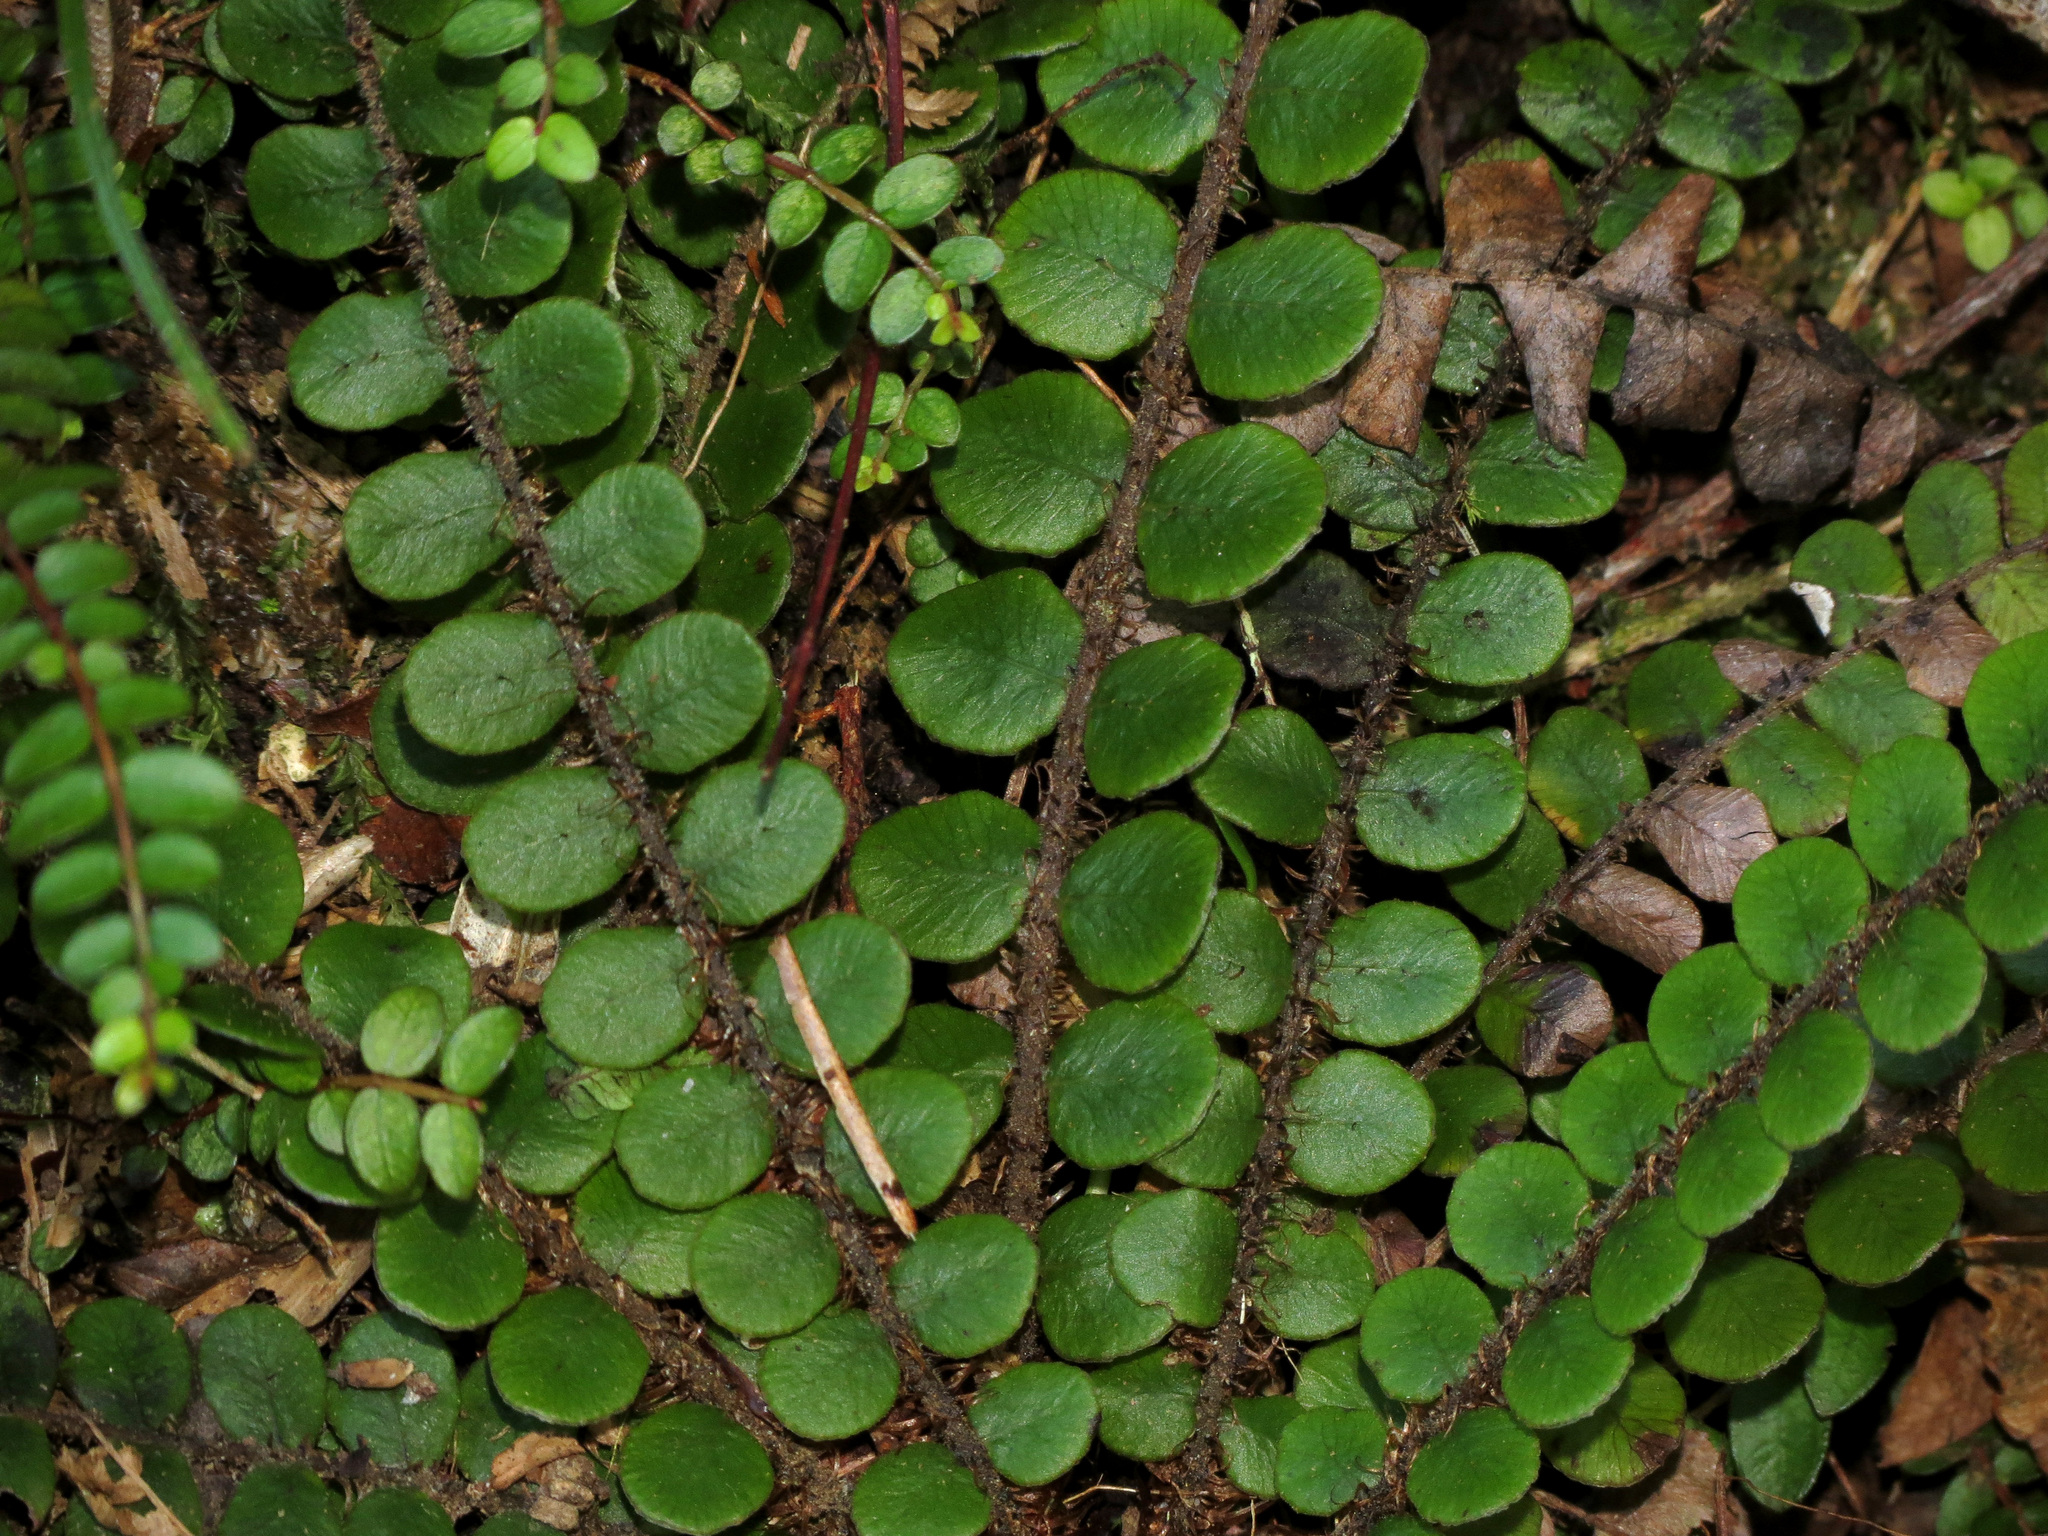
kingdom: Plantae
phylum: Tracheophyta
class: Polypodiopsida
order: Polypodiales
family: Blechnaceae
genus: Cranfillia
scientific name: Cranfillia fluviatilis
